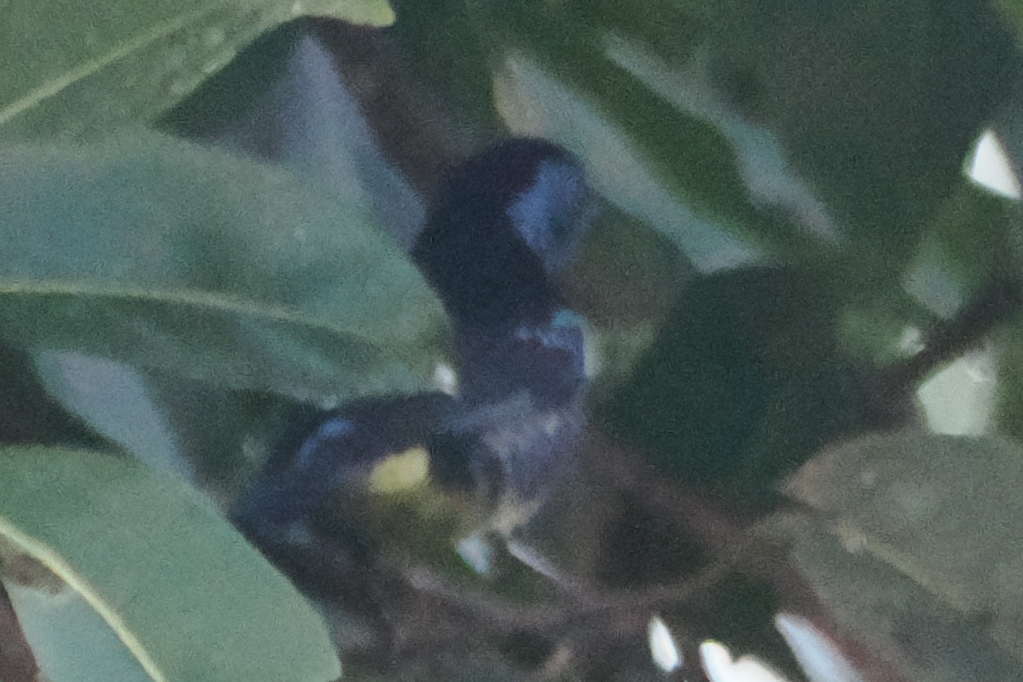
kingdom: Animalia
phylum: Chordata
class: Aves
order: Passeriformes
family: Thraupidae
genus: Tangara
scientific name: Tangara mexicana
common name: Turquoise tanager
